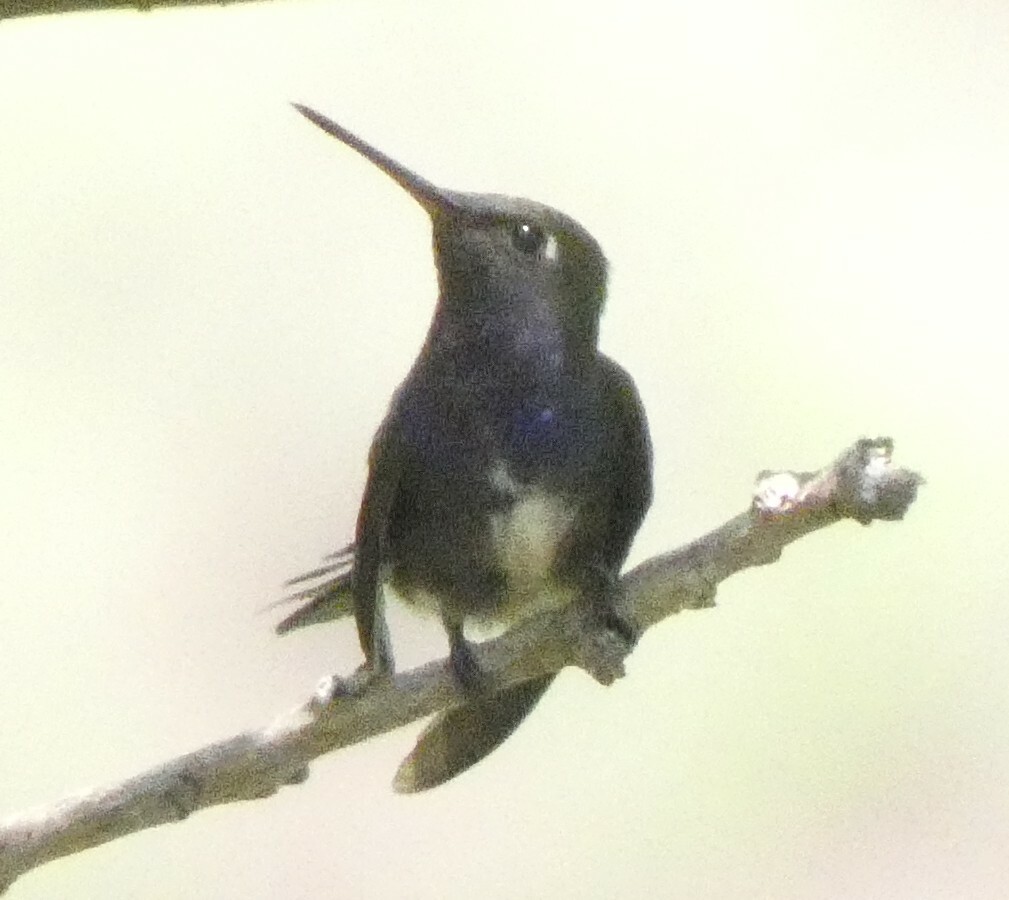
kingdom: Animalia
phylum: Chordata
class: Aves
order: Apodiformes
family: Trochilidae
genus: Chionomesa
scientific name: Chionomesa lactea
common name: Sapphire-spangled emerald
